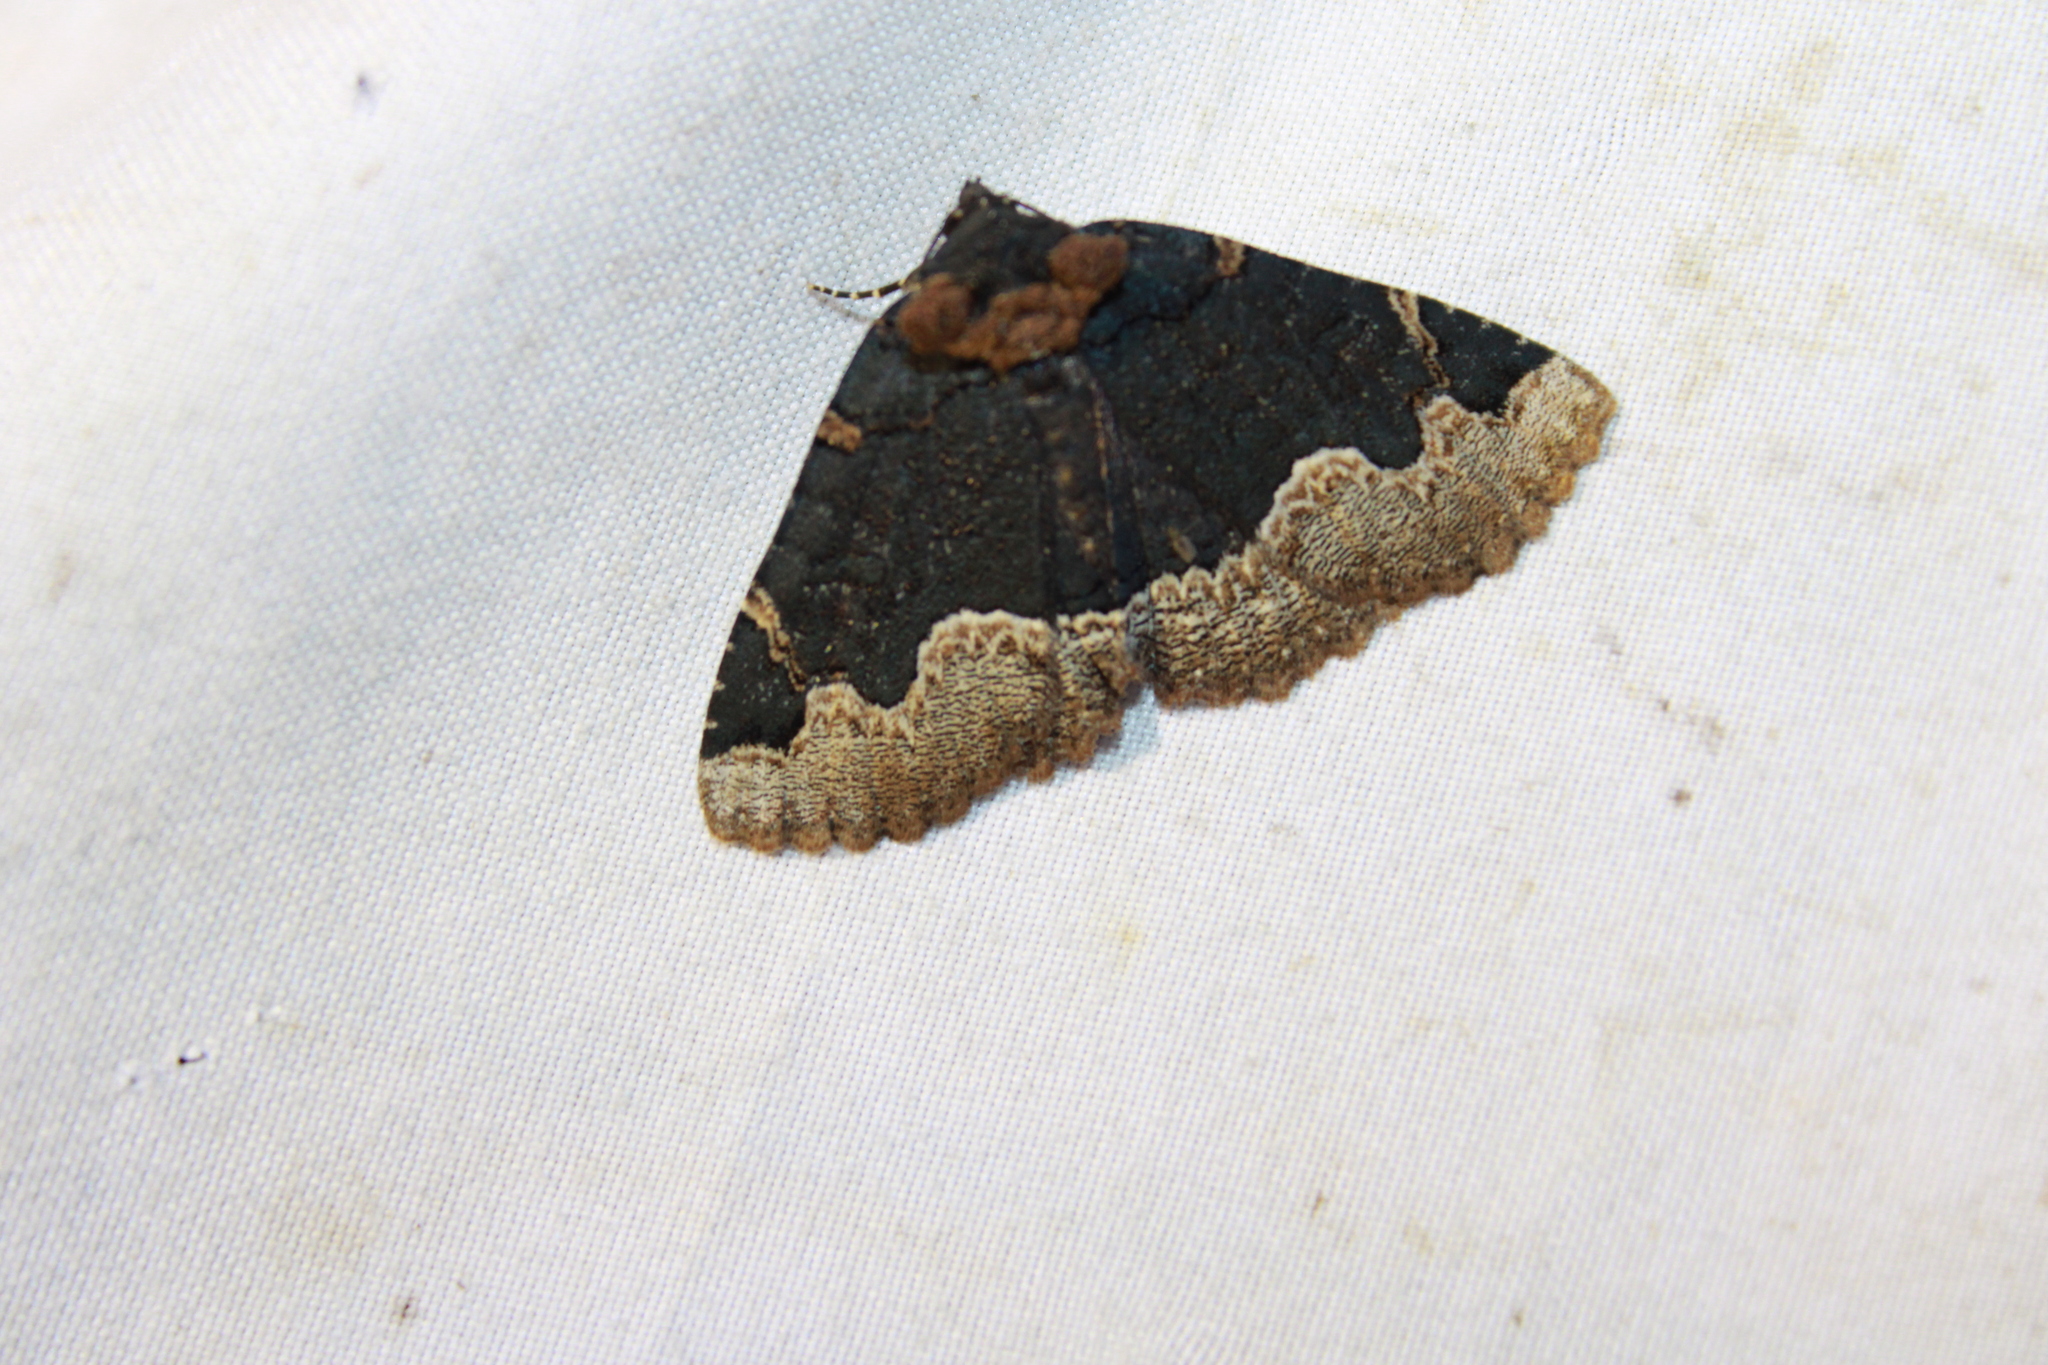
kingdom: Animalia
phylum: Arthropoda
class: Insecta
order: Lepidoptera
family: Erebidae
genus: Zale
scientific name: Zale horrida
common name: Horrid zale moth
